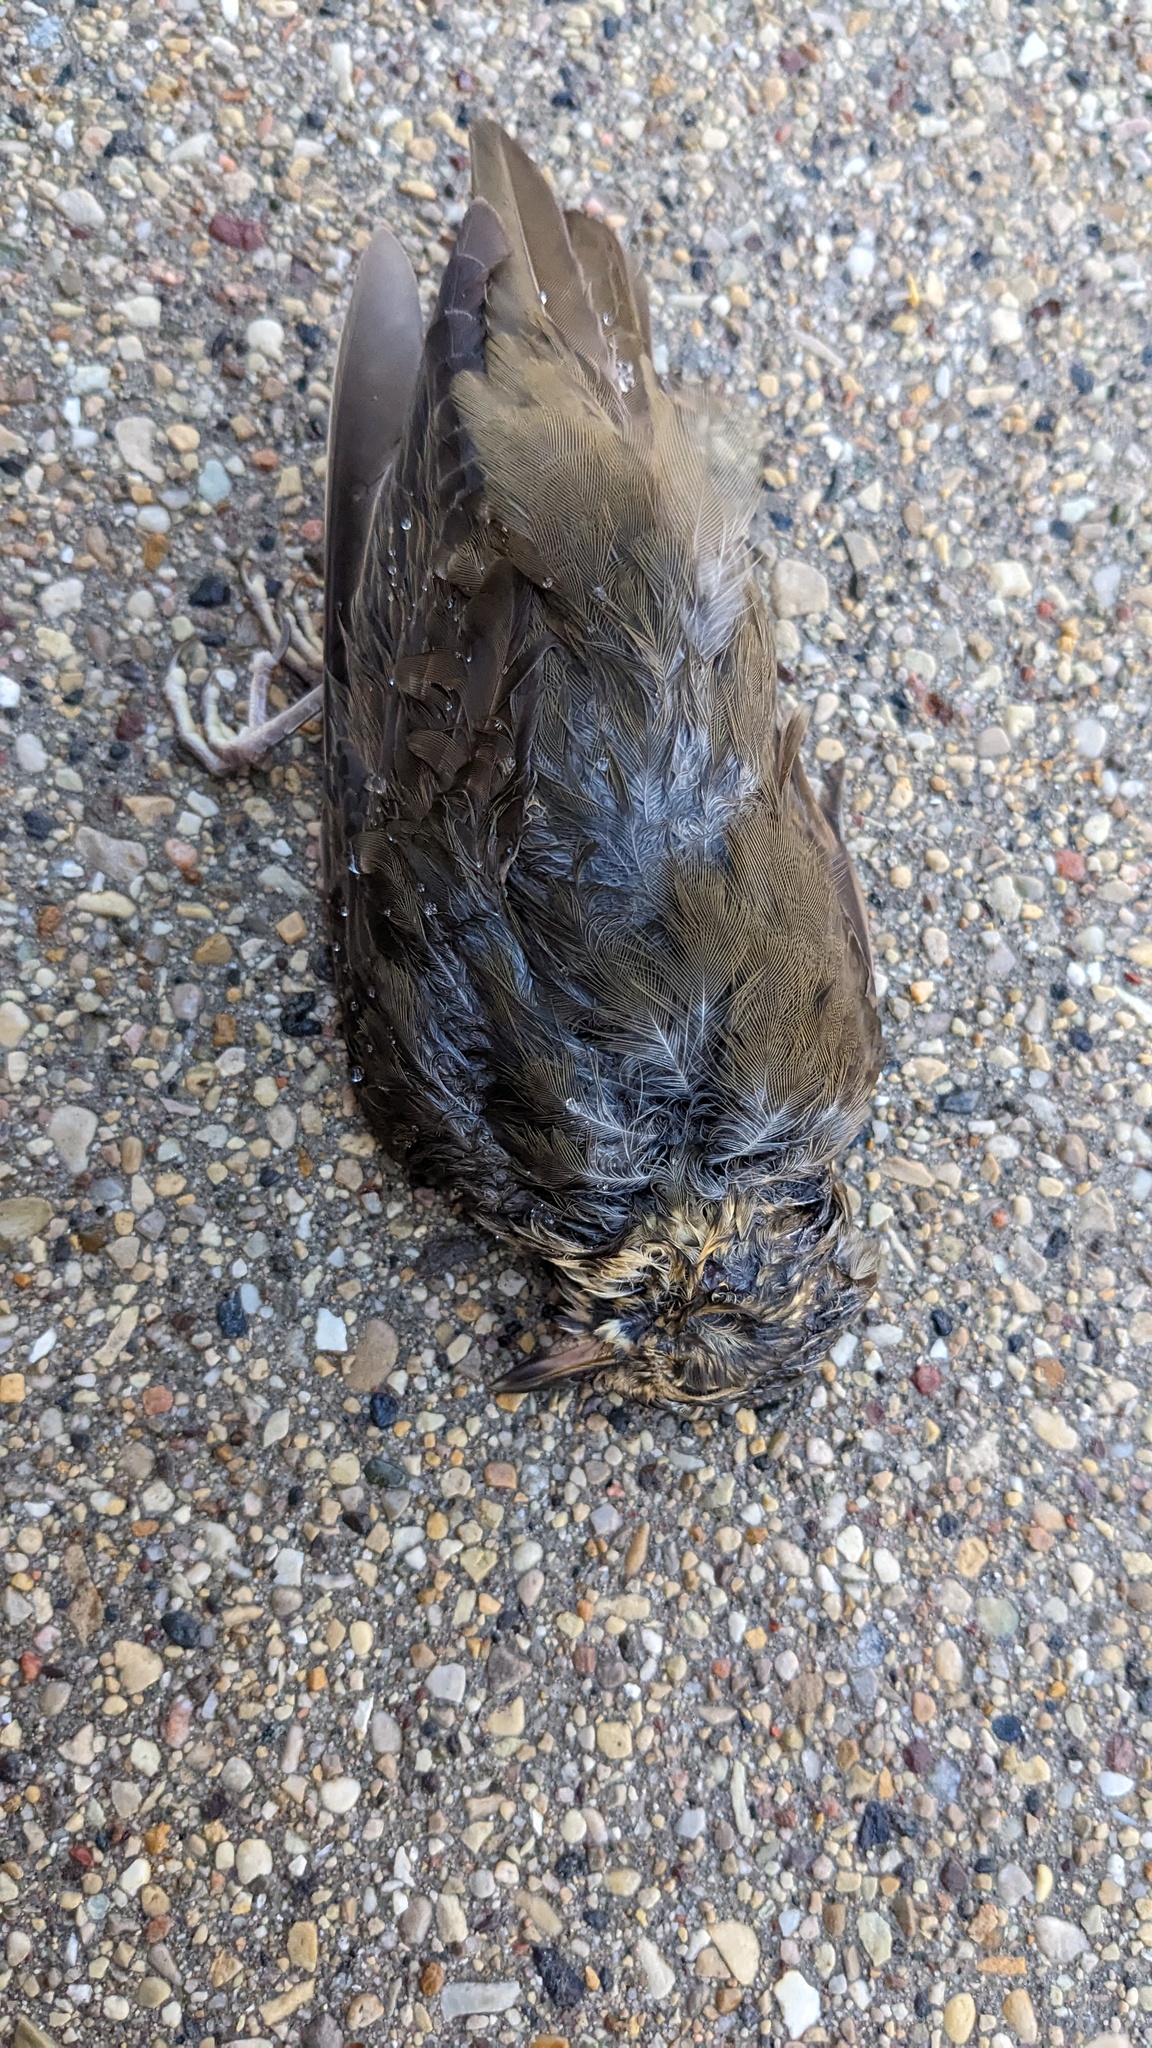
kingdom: Animalia
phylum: Chordata
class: Aves
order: Passeriformes
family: Turdidae
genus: Catharus
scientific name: Catharus ustulatus
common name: Swainson's thrush
